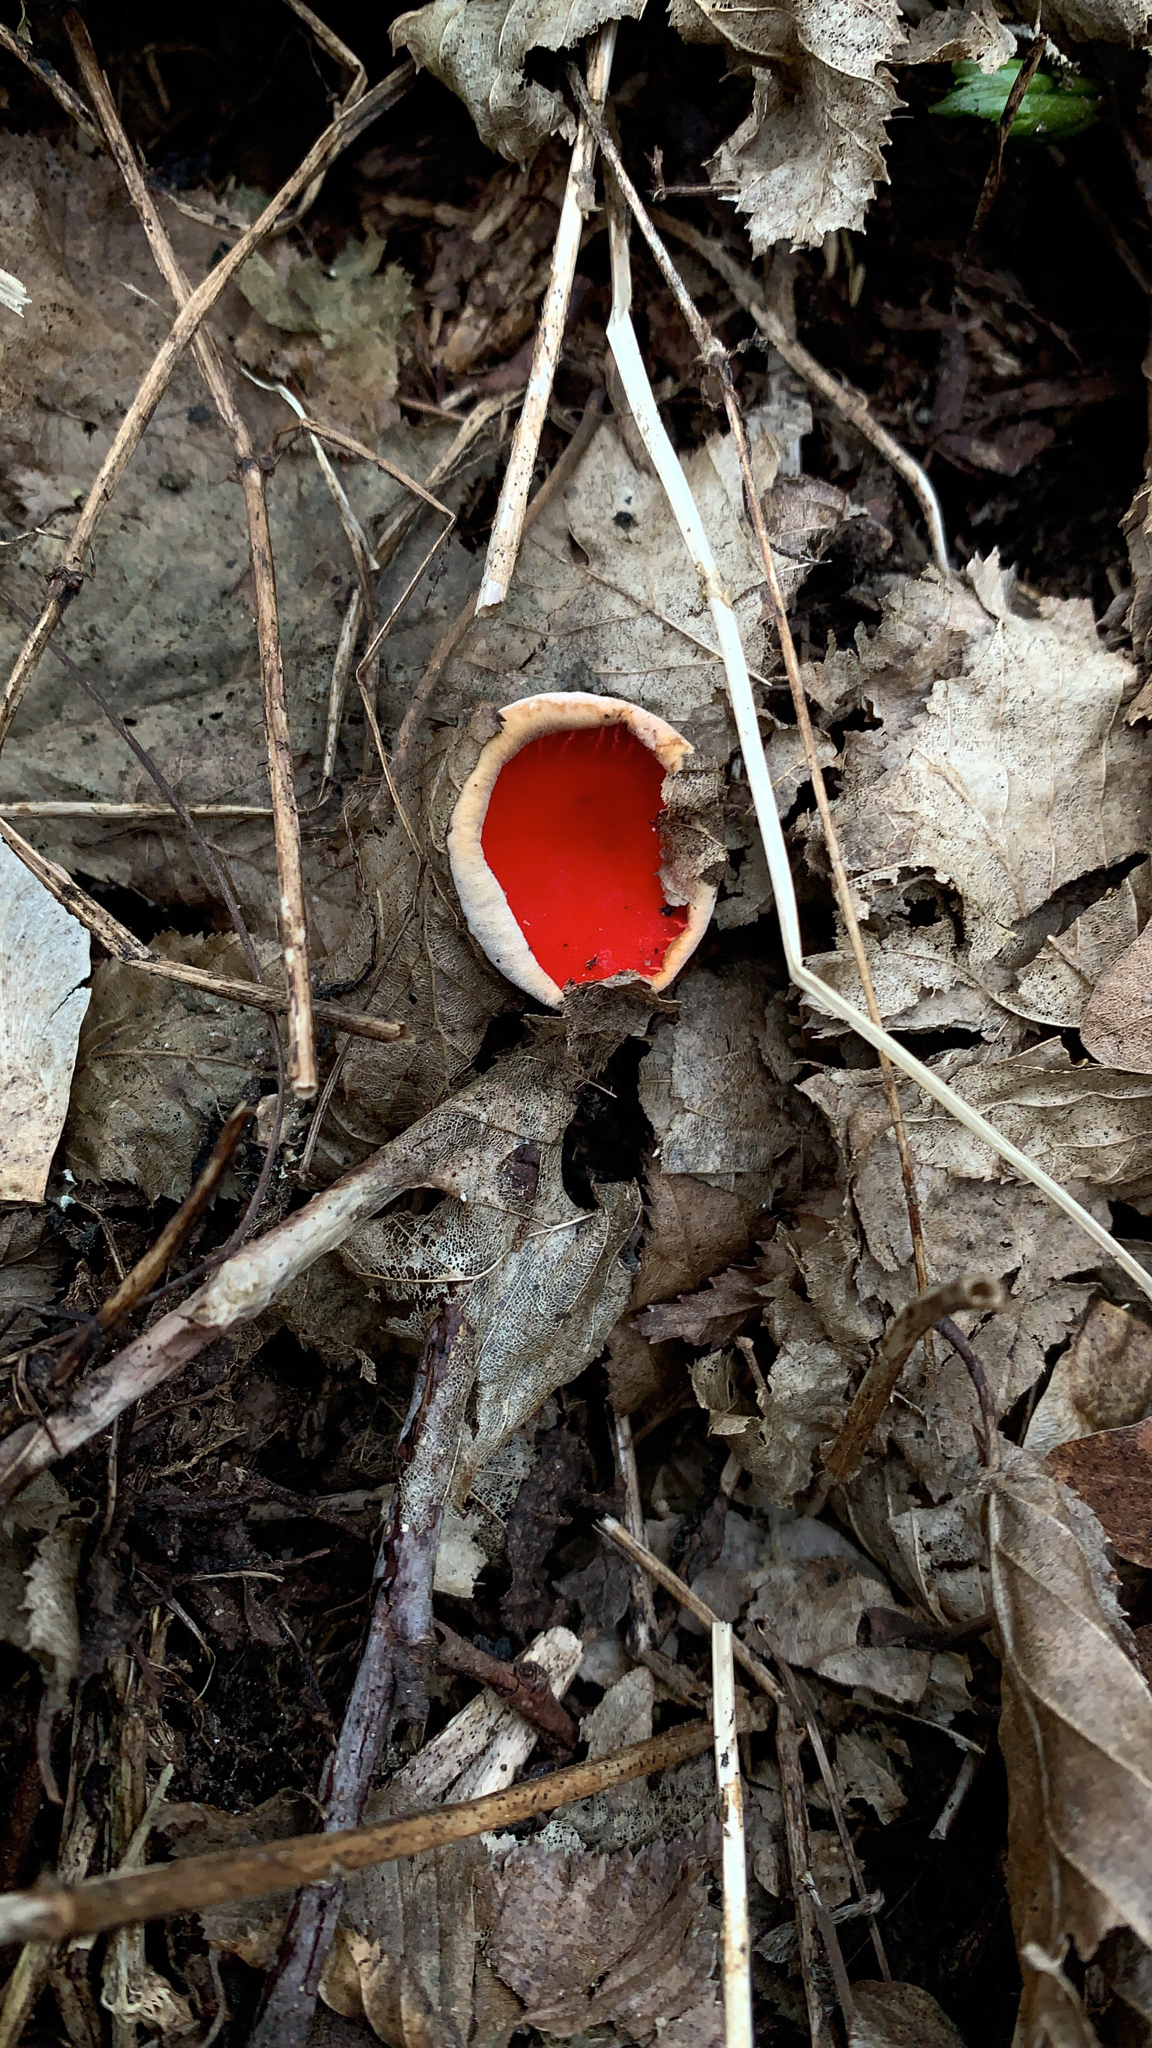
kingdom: Fungi
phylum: Ascomycota
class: Pezizomycetes
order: Pezizales
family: Sarcoscyphaceae
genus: Sarcoscypha
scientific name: Sarcoscypha
